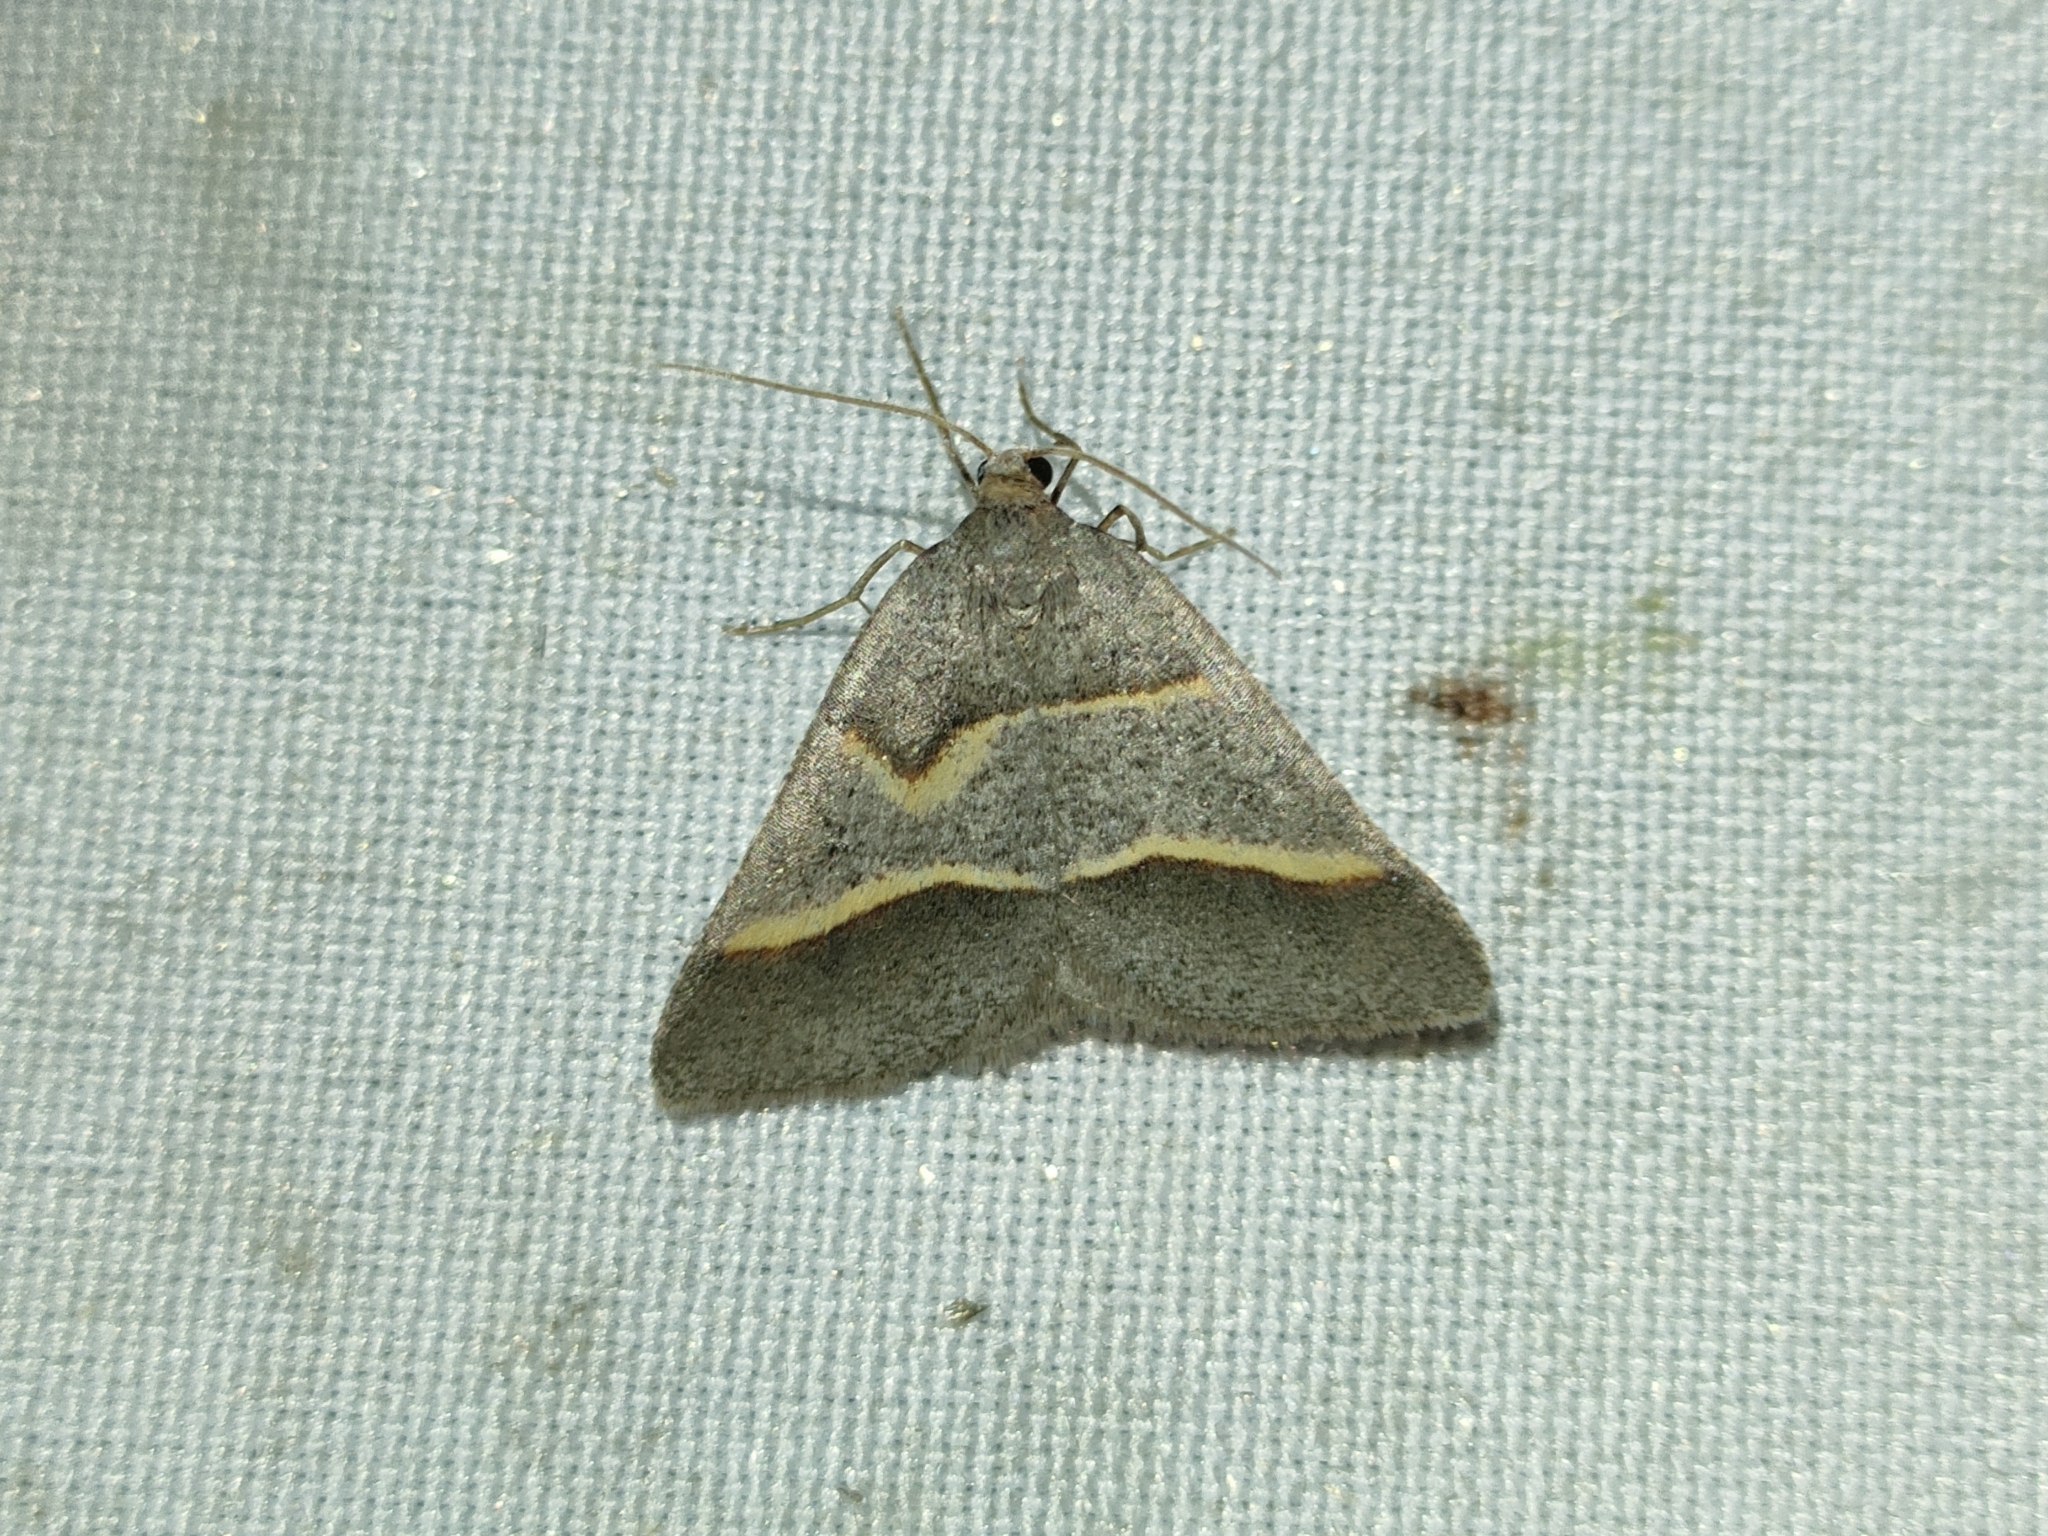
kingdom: Animalia
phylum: Arthropoda
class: Insecta
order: Lepidoptera
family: Pterophoridae
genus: Pterophorus
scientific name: Pterophorus Petrophora narbonea
